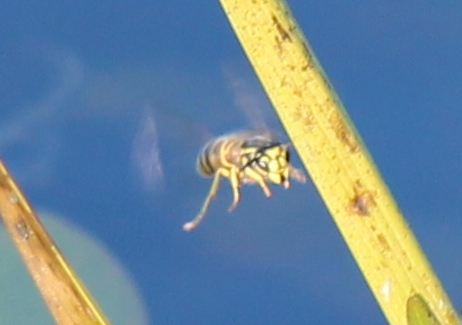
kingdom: Animalia
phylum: Arthropoda
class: Insecta
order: Hymenoptera
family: Vespidae
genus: Vespula
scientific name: Vespula maculifrons
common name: Eastern yellowjacket
